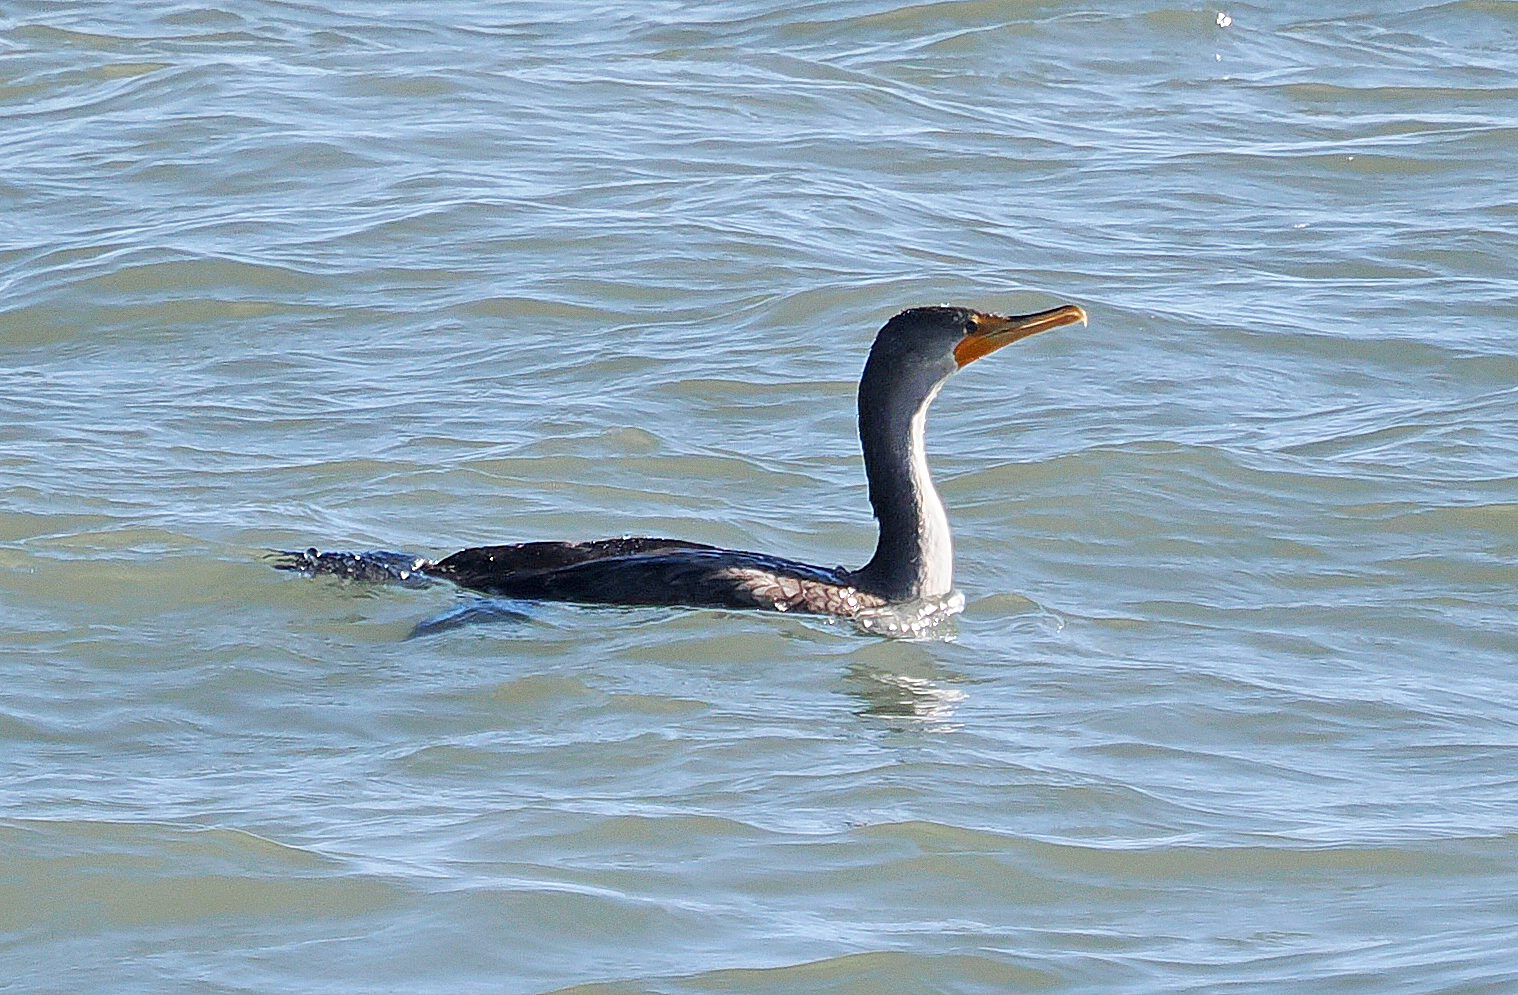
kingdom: Animalia
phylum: Chordata
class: Aves
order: Suliformes
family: Phalacrocoracidae
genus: Phalacrocorax
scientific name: Phalacrocorax auritus
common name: Double-crested cormorant
